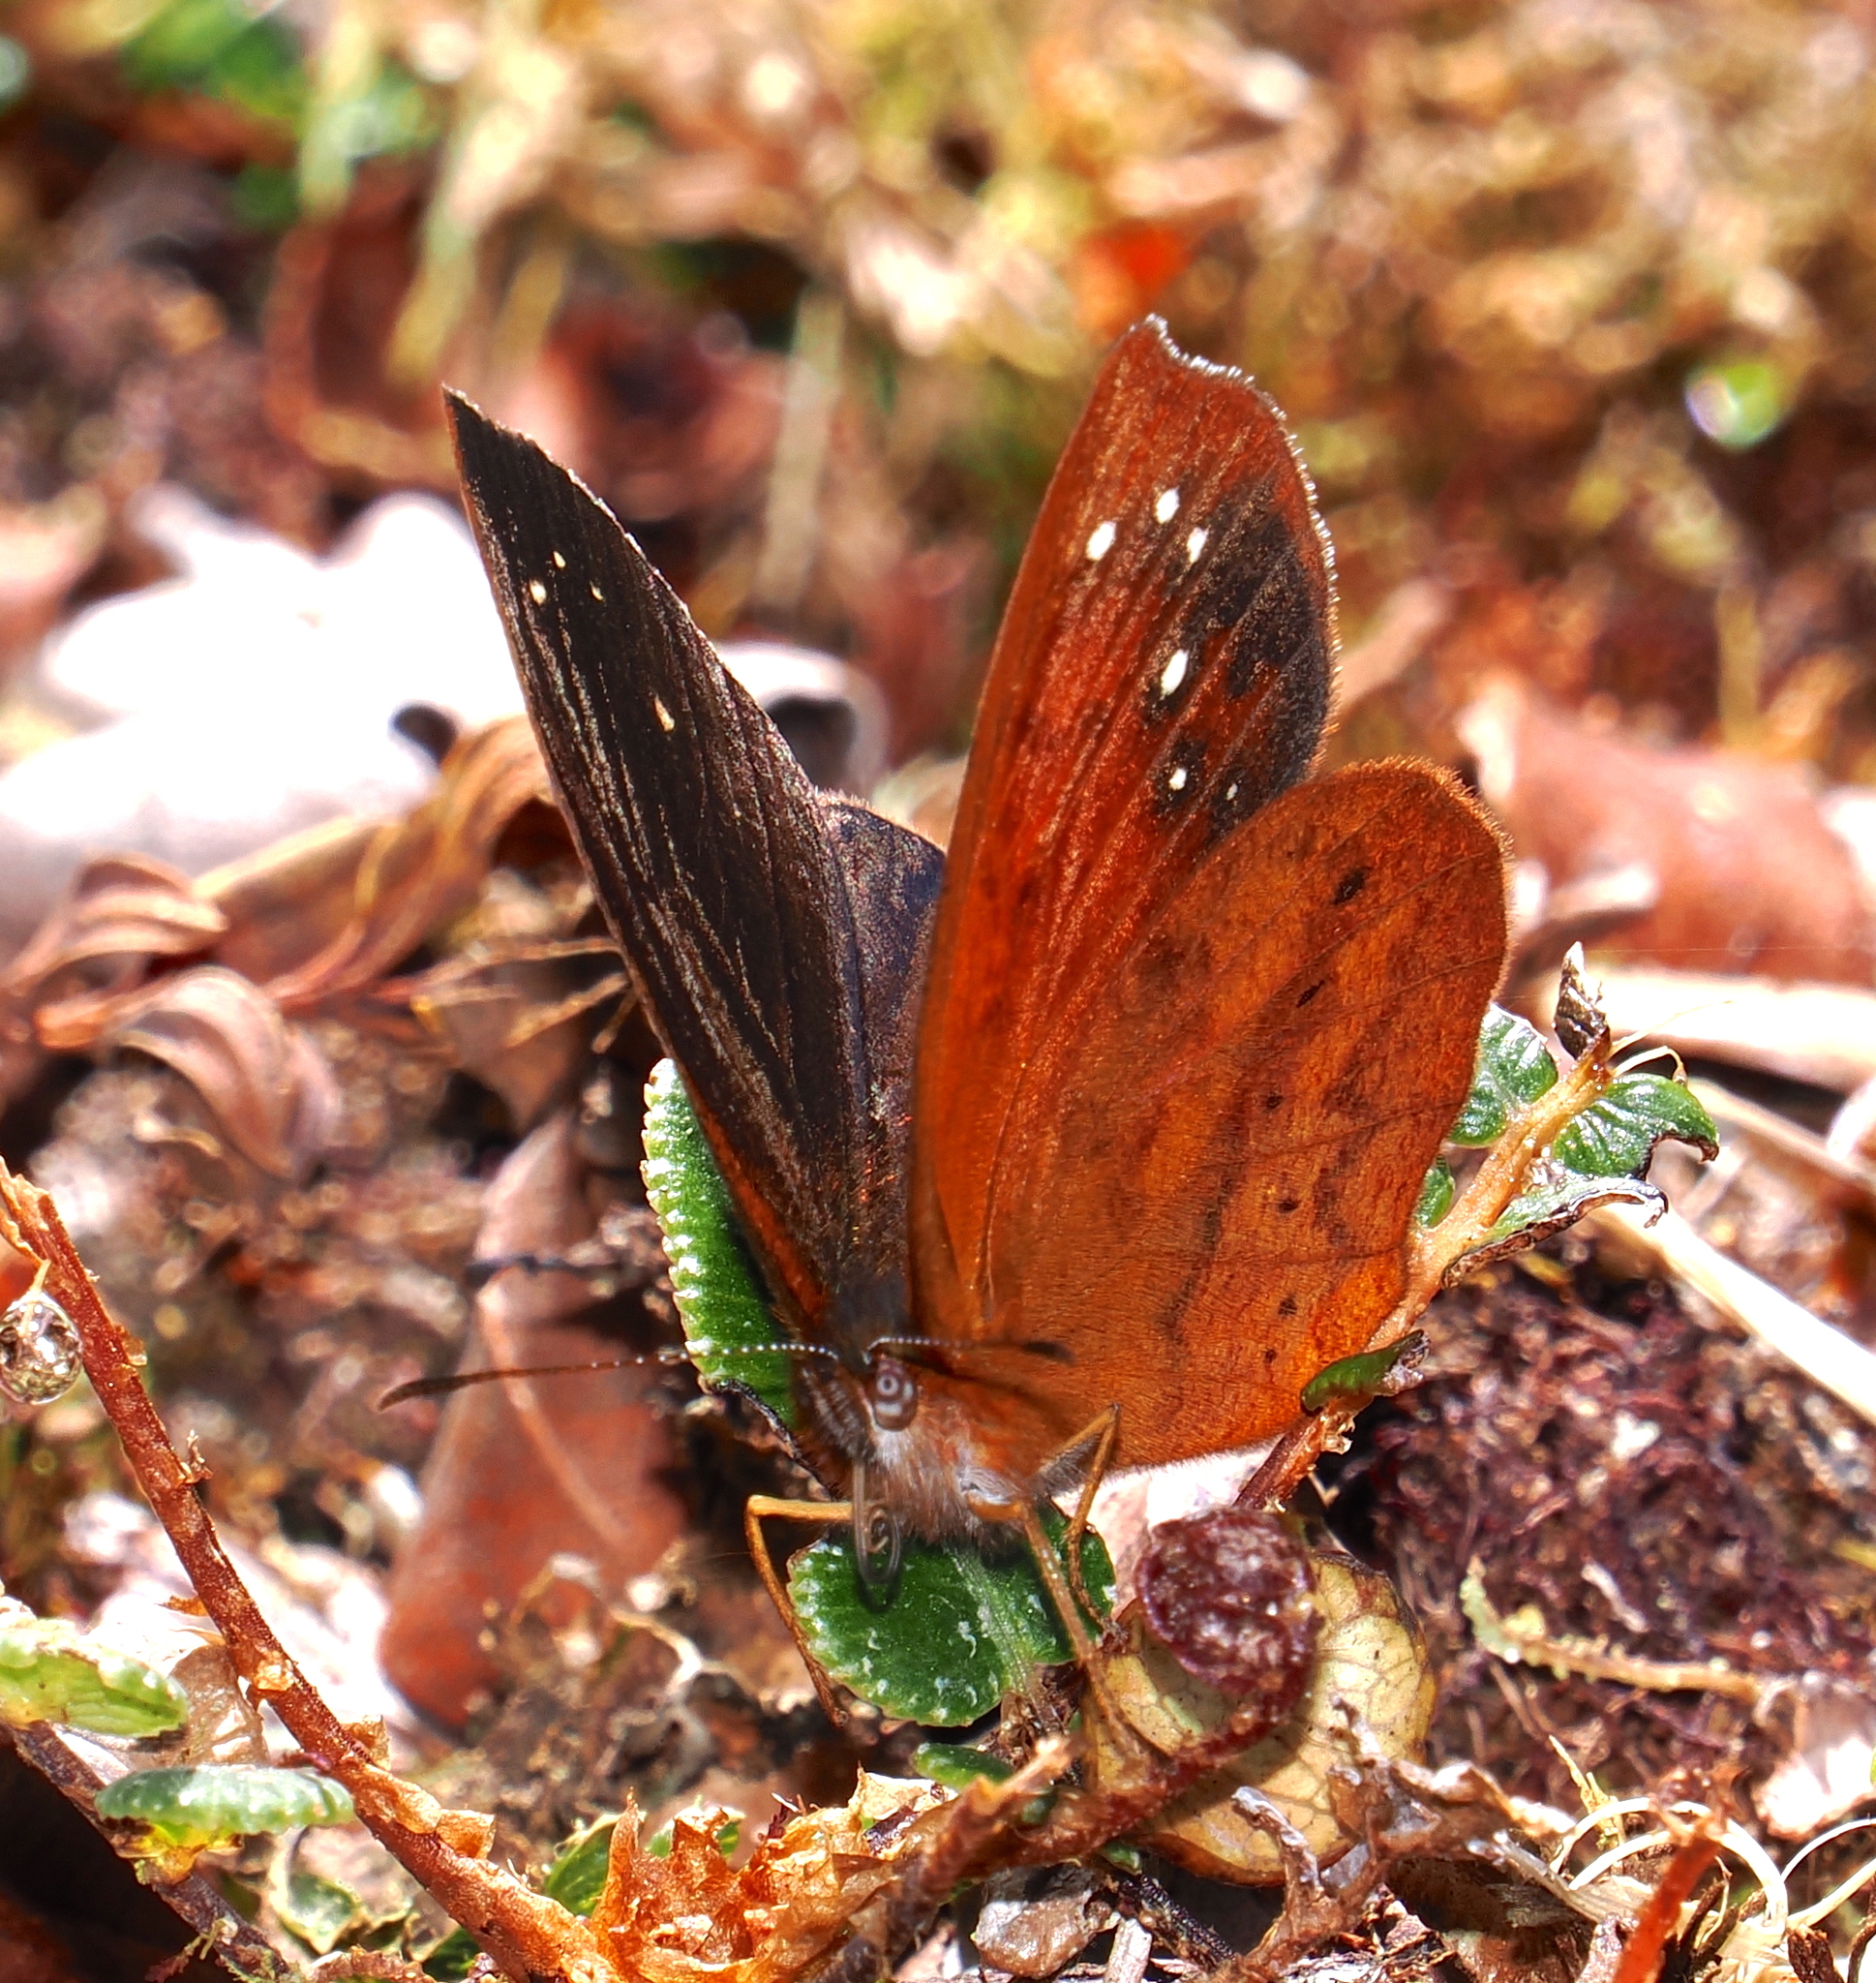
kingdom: Animalia
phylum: Arthropoda
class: Insecta
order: Lepidoptera
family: Nymphalidae
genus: Lymanopoda
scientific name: Lymanopoda excisa
